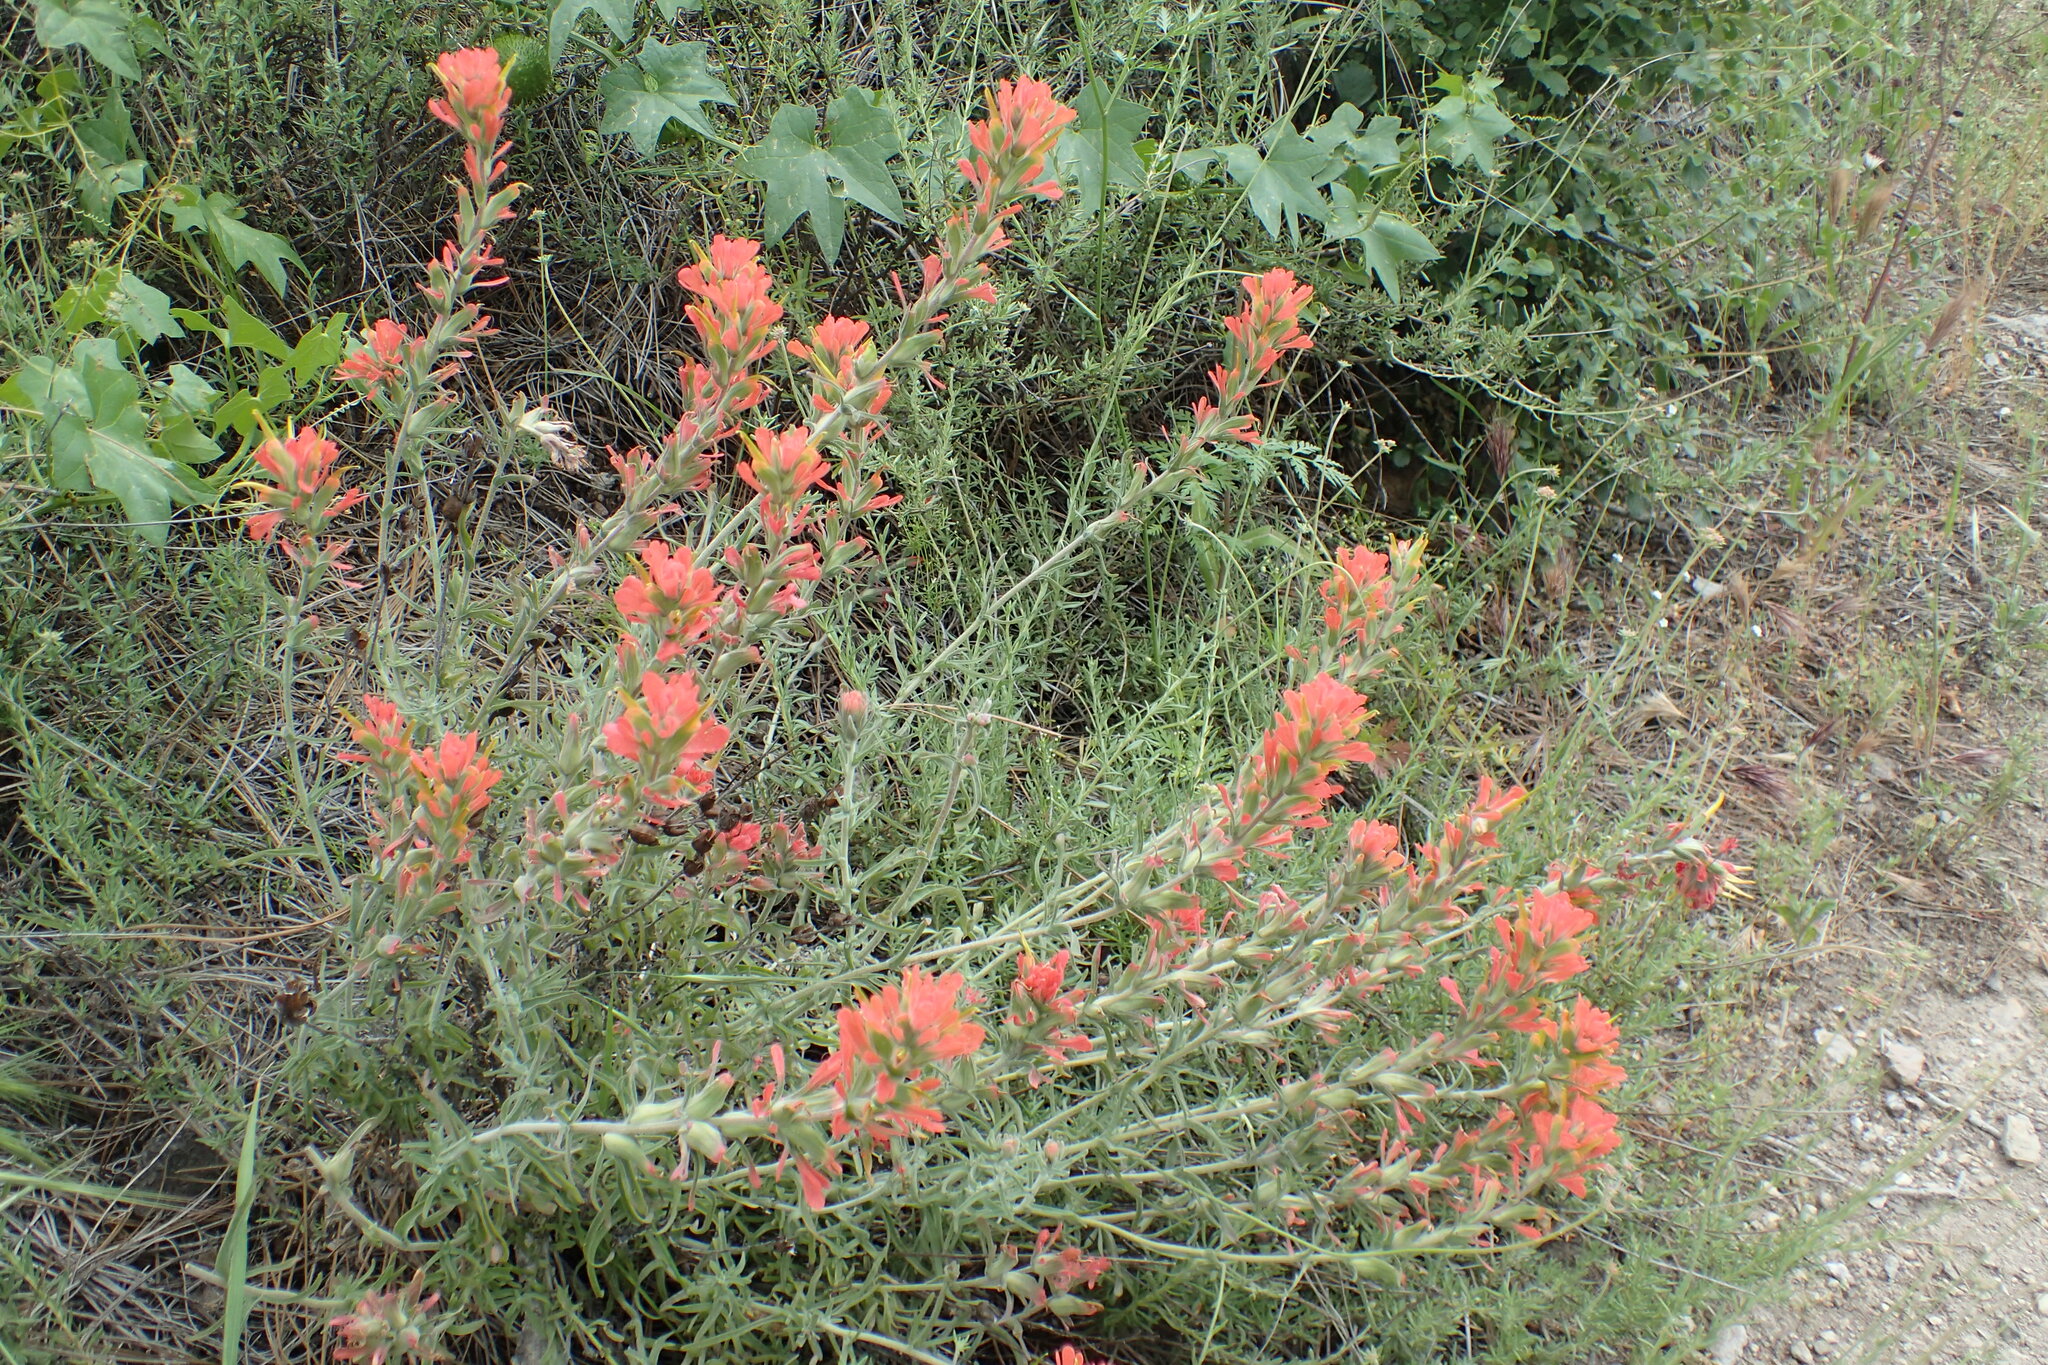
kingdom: Plantae
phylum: Tracheophyta
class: Magnoliopsida
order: Lamiales
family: Orobanchaceae
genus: Castilleja
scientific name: Castilleja foliolosa
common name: Woolly indian paintbrush
